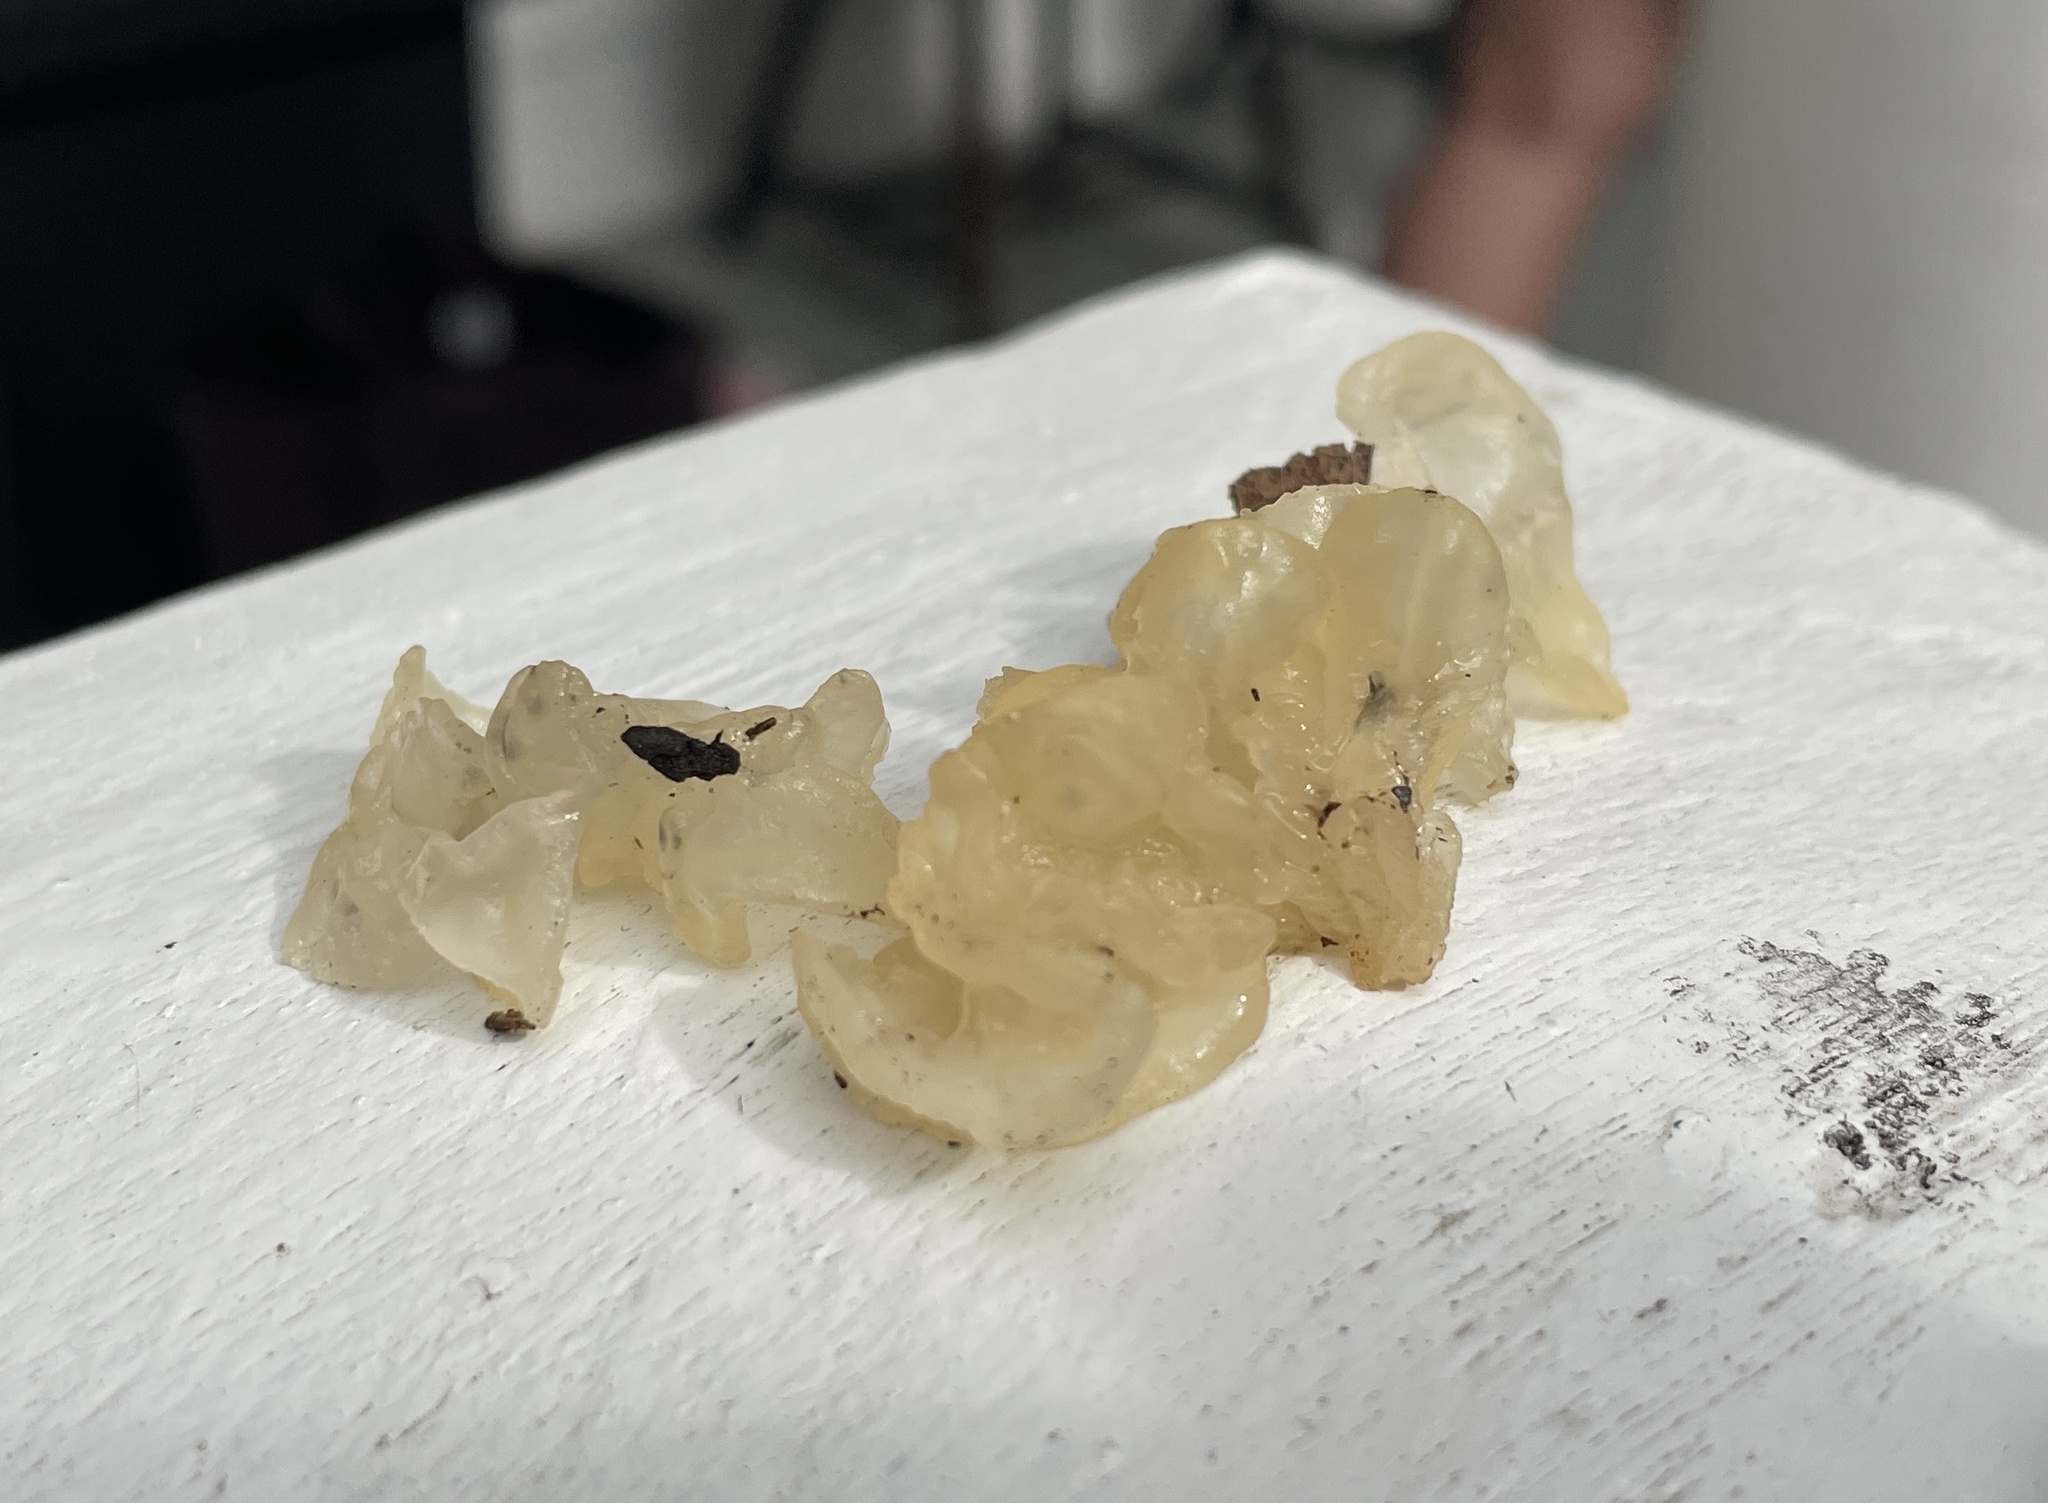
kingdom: Fungi
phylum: Basidiomycota
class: Tremellomycetes
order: Tremellales
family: Tremellaceae
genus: Tremella
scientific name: Tremella fuciformis
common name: Snow fungus
